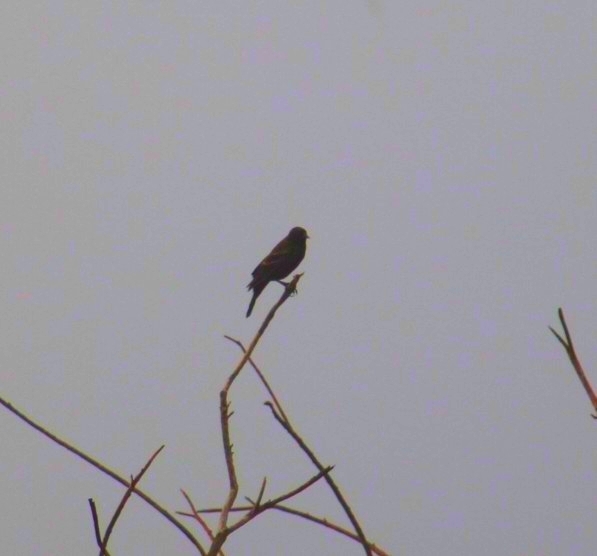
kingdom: Animalia
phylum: Chordata
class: Aves
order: Passeriformes
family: Icteridae
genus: Agelaius
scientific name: Agelaius phoeniceus
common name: Red-winged blackbird
